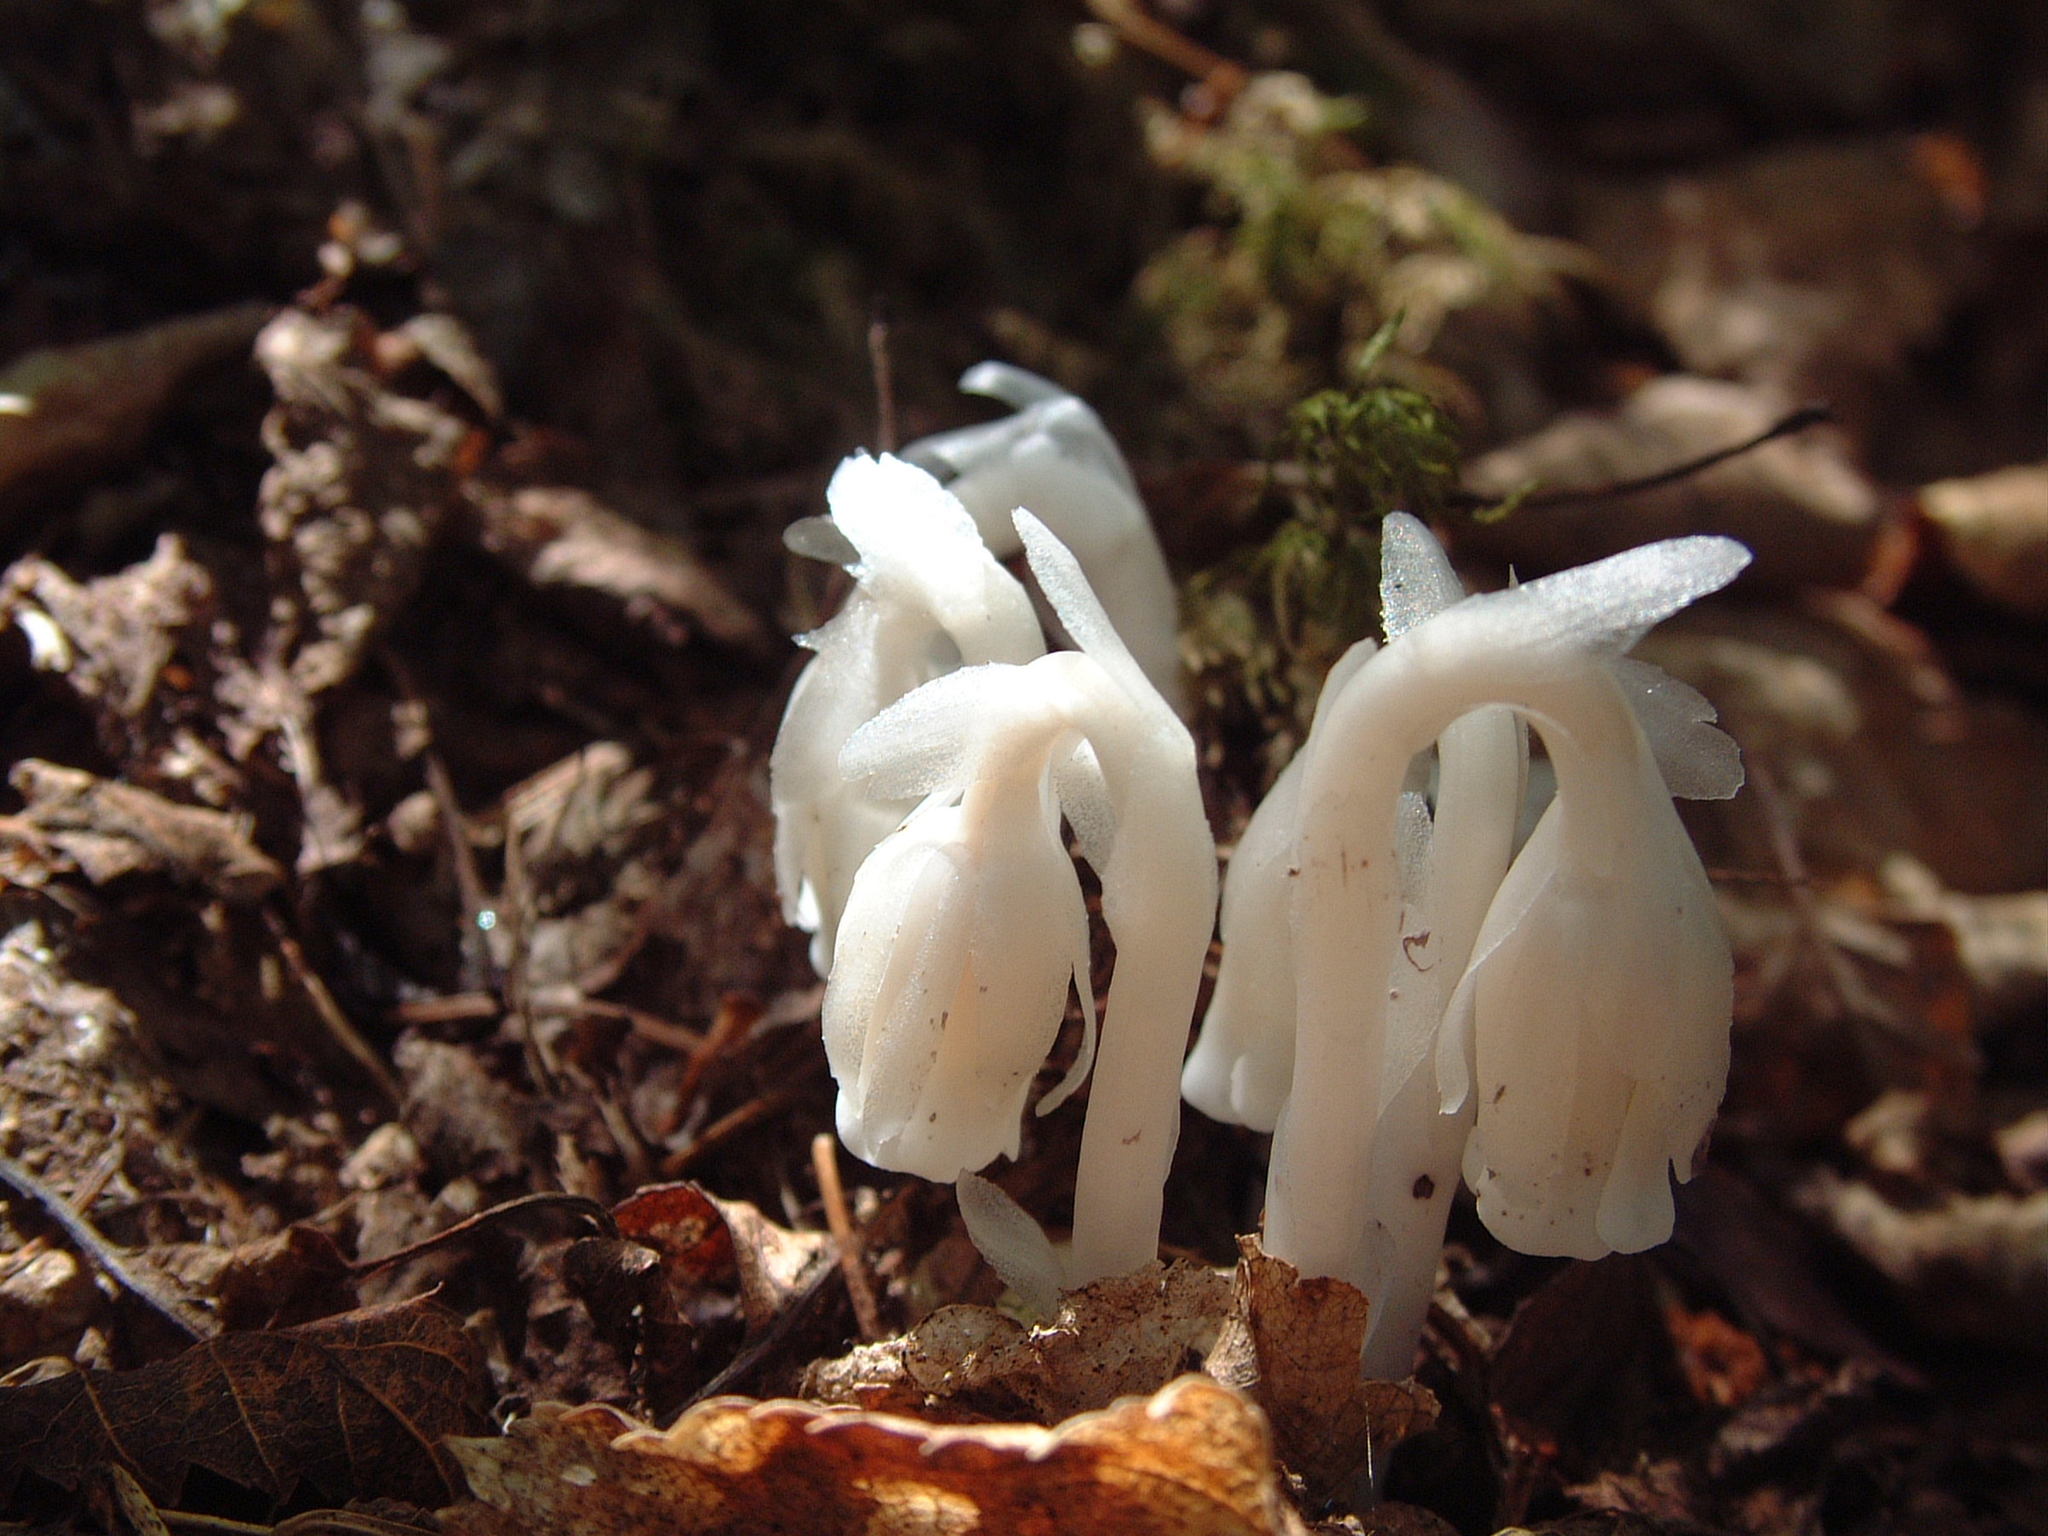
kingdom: Plantae
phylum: Tracheophyta
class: Magnoliopsida
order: Ericales
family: Ericaceae
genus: Monotropa
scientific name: Monotropa uniflora
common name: Convulsion root
